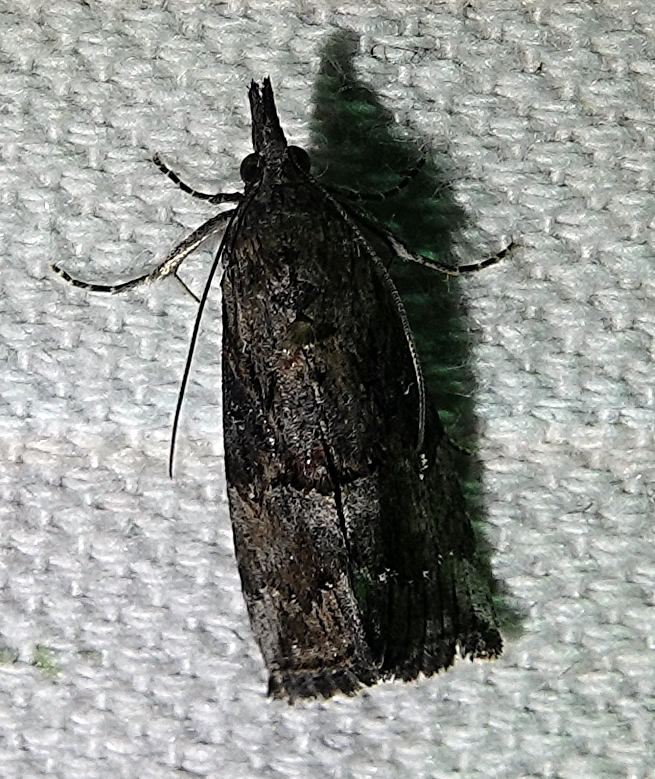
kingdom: Animalia
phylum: Arthropoda
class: Insecta
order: Lepidoptera
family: Erebidae
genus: Hypena
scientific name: Hypena scabra
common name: Green cloverworm
